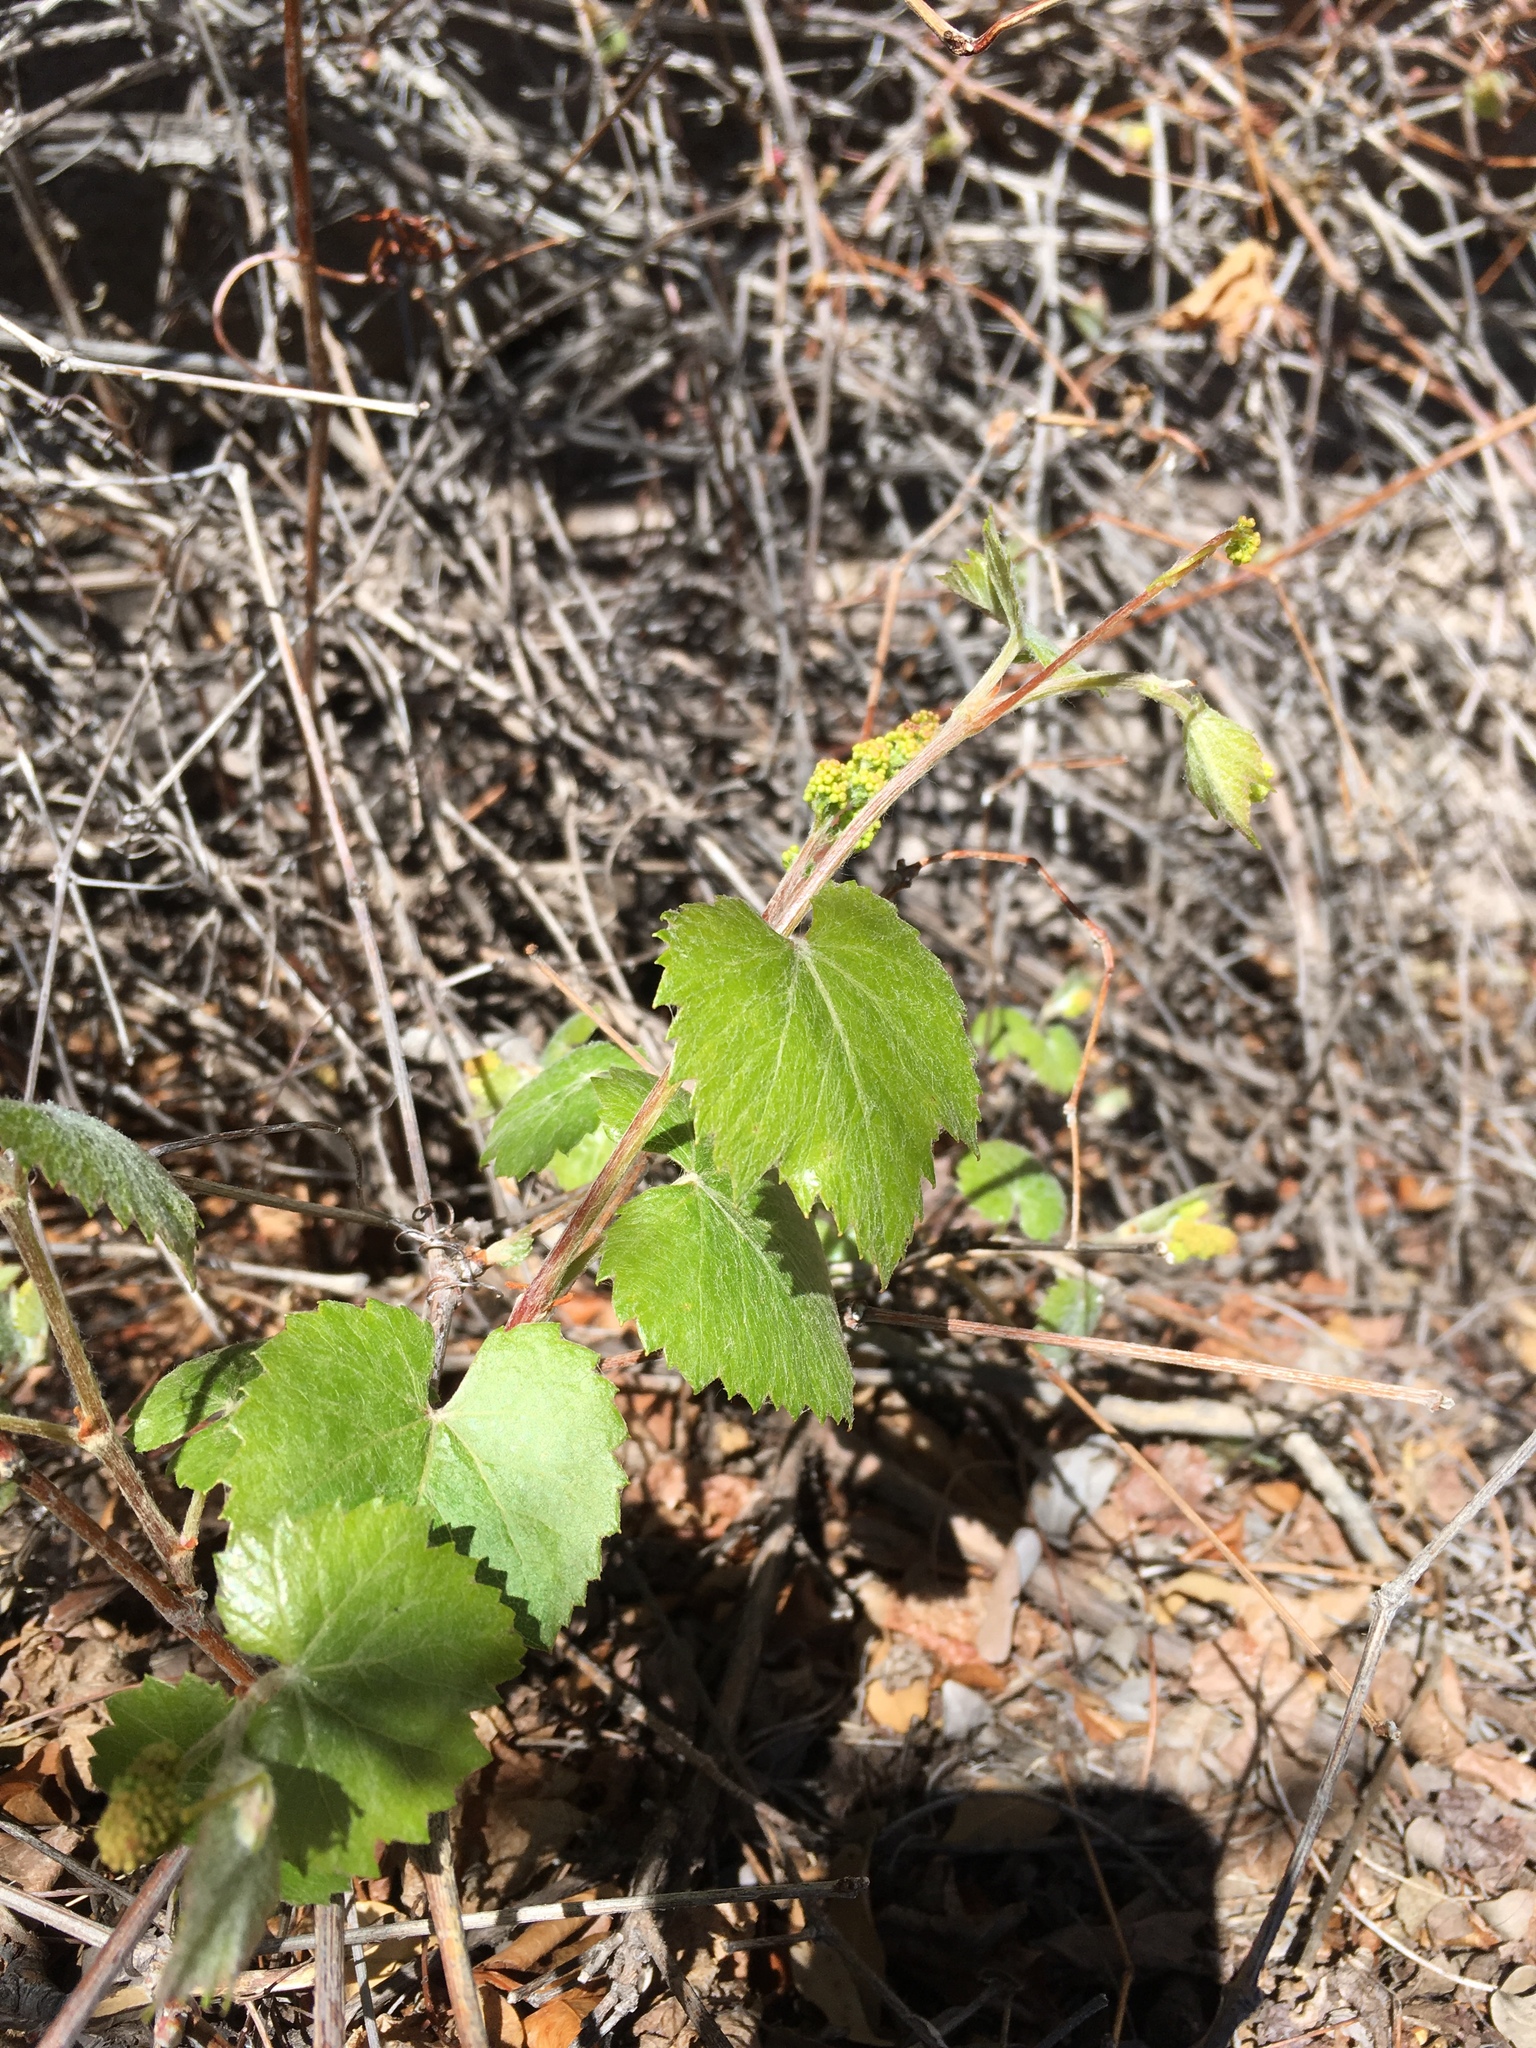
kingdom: Plantae
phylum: Tracheophyta
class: Magnoliopsida
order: Vitales
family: Vitaceae
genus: Vitis
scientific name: Vitis arizonica
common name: Canyon grape
